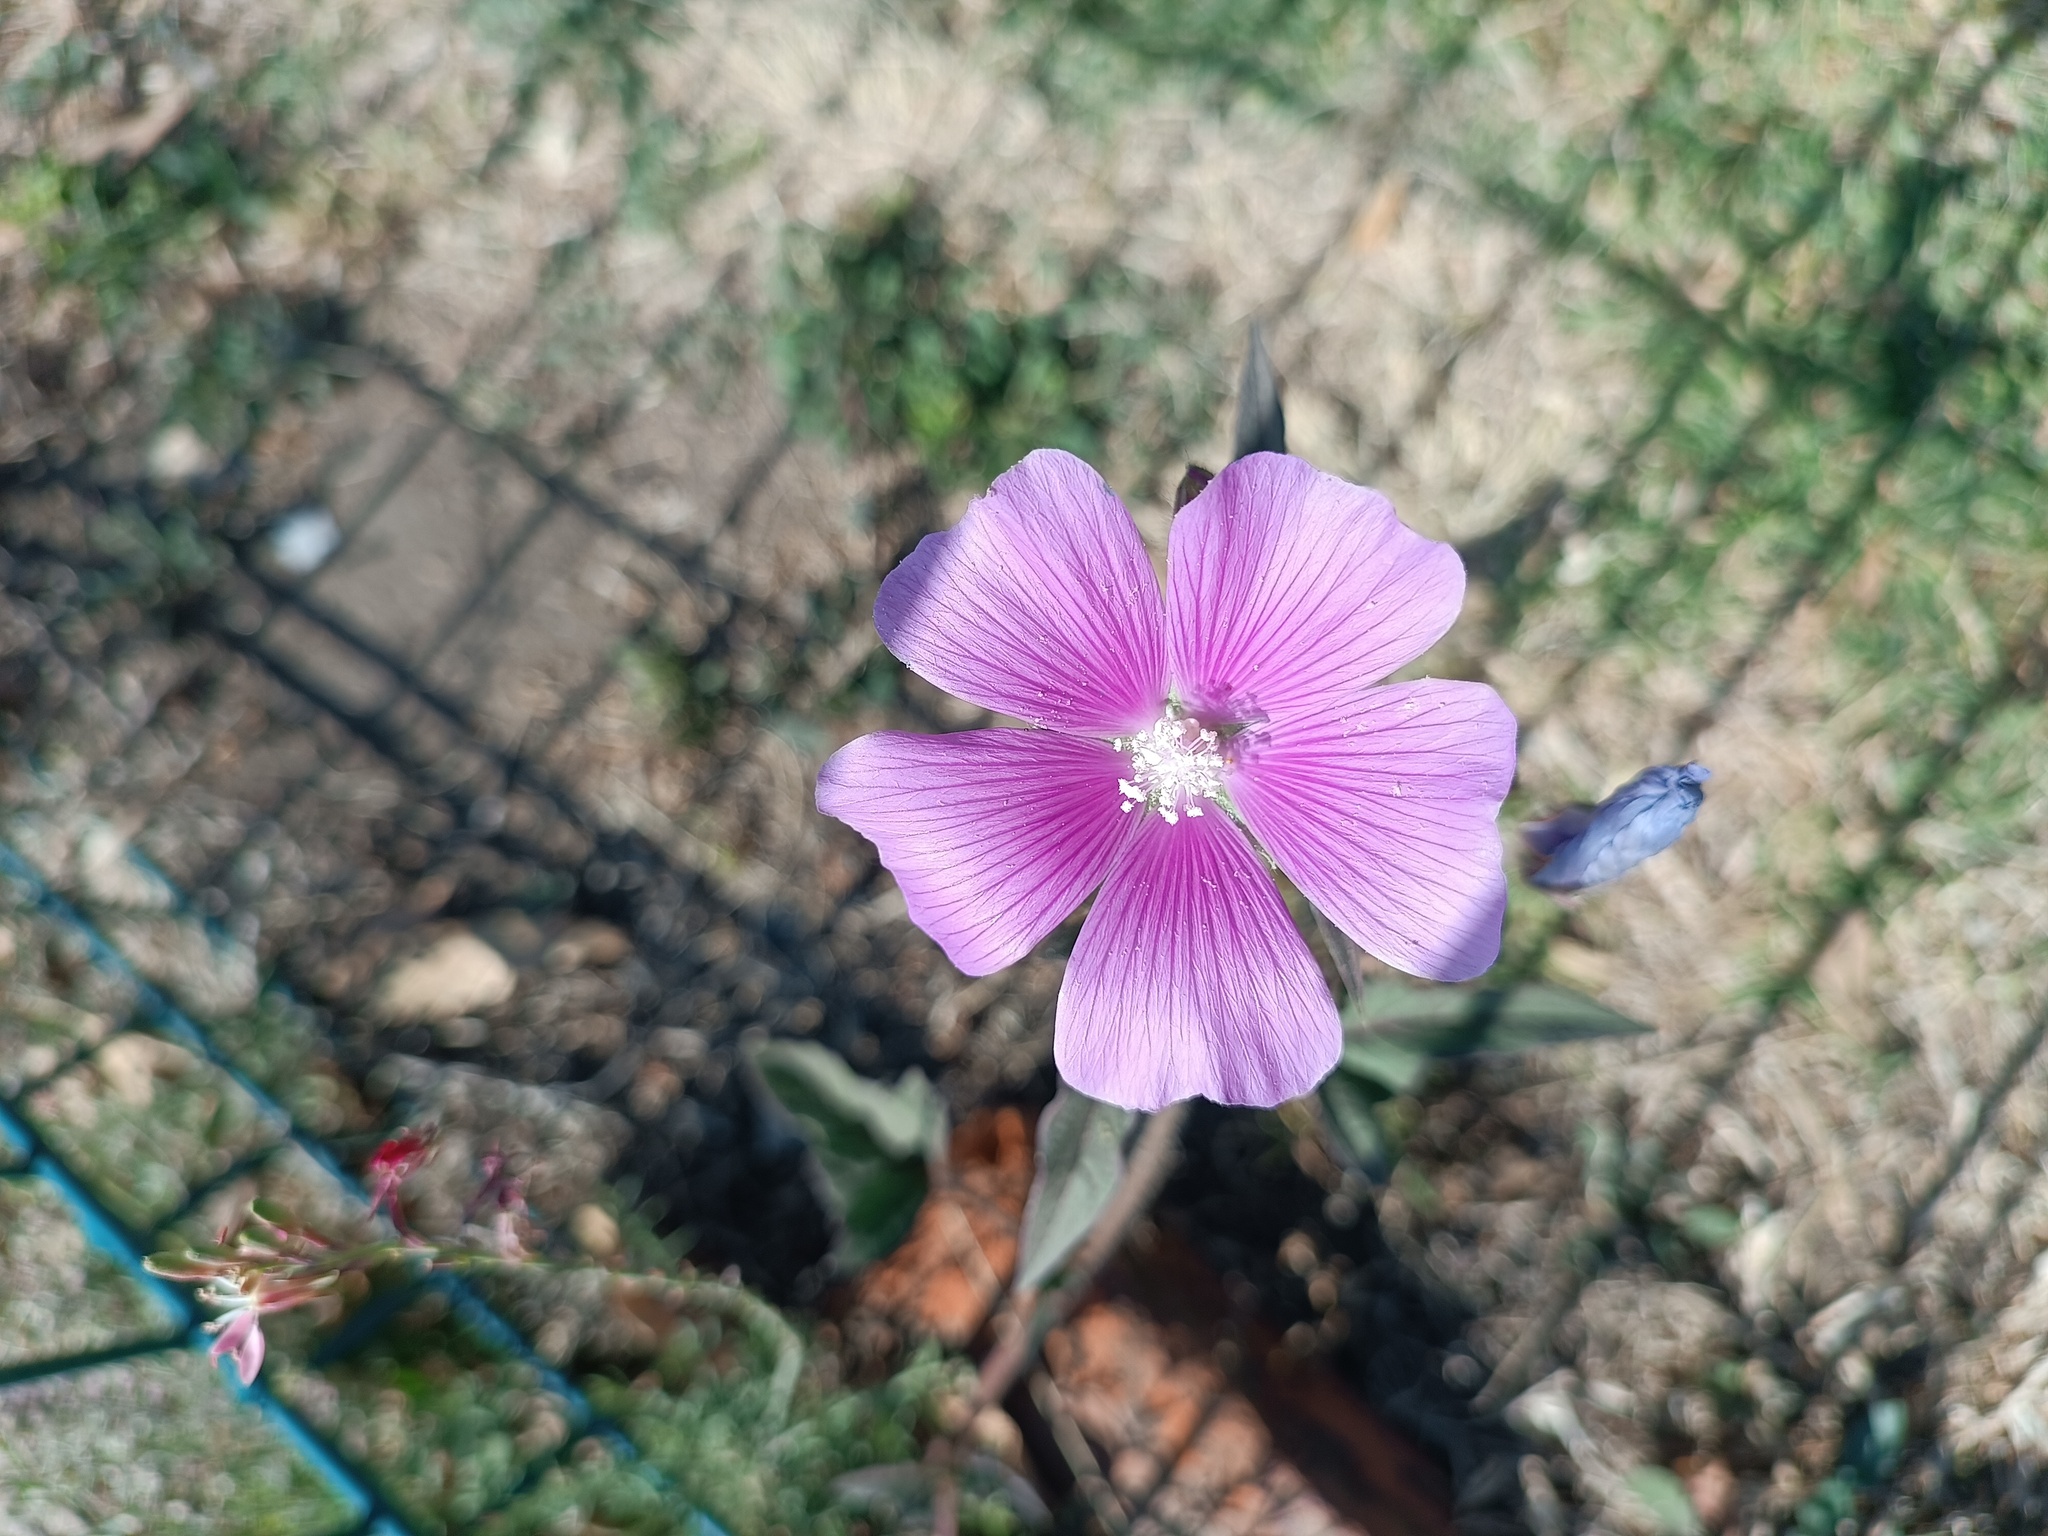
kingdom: Plantae
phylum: Tracheophyta
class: Magnoliopsida
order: Malvales
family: Malvaceae
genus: Anoda
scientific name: Anoda cristata
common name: Spurred anoda
